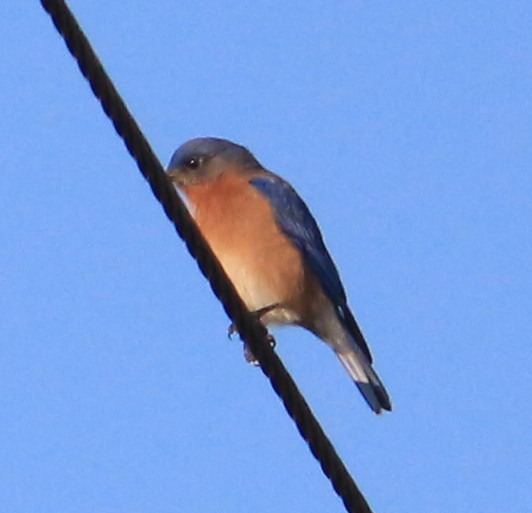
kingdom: Animalia
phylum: Chordata
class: Aves
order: Passeriformes
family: Turdidae
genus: Sialia
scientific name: Sialia sialis
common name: Eastern bluebird
